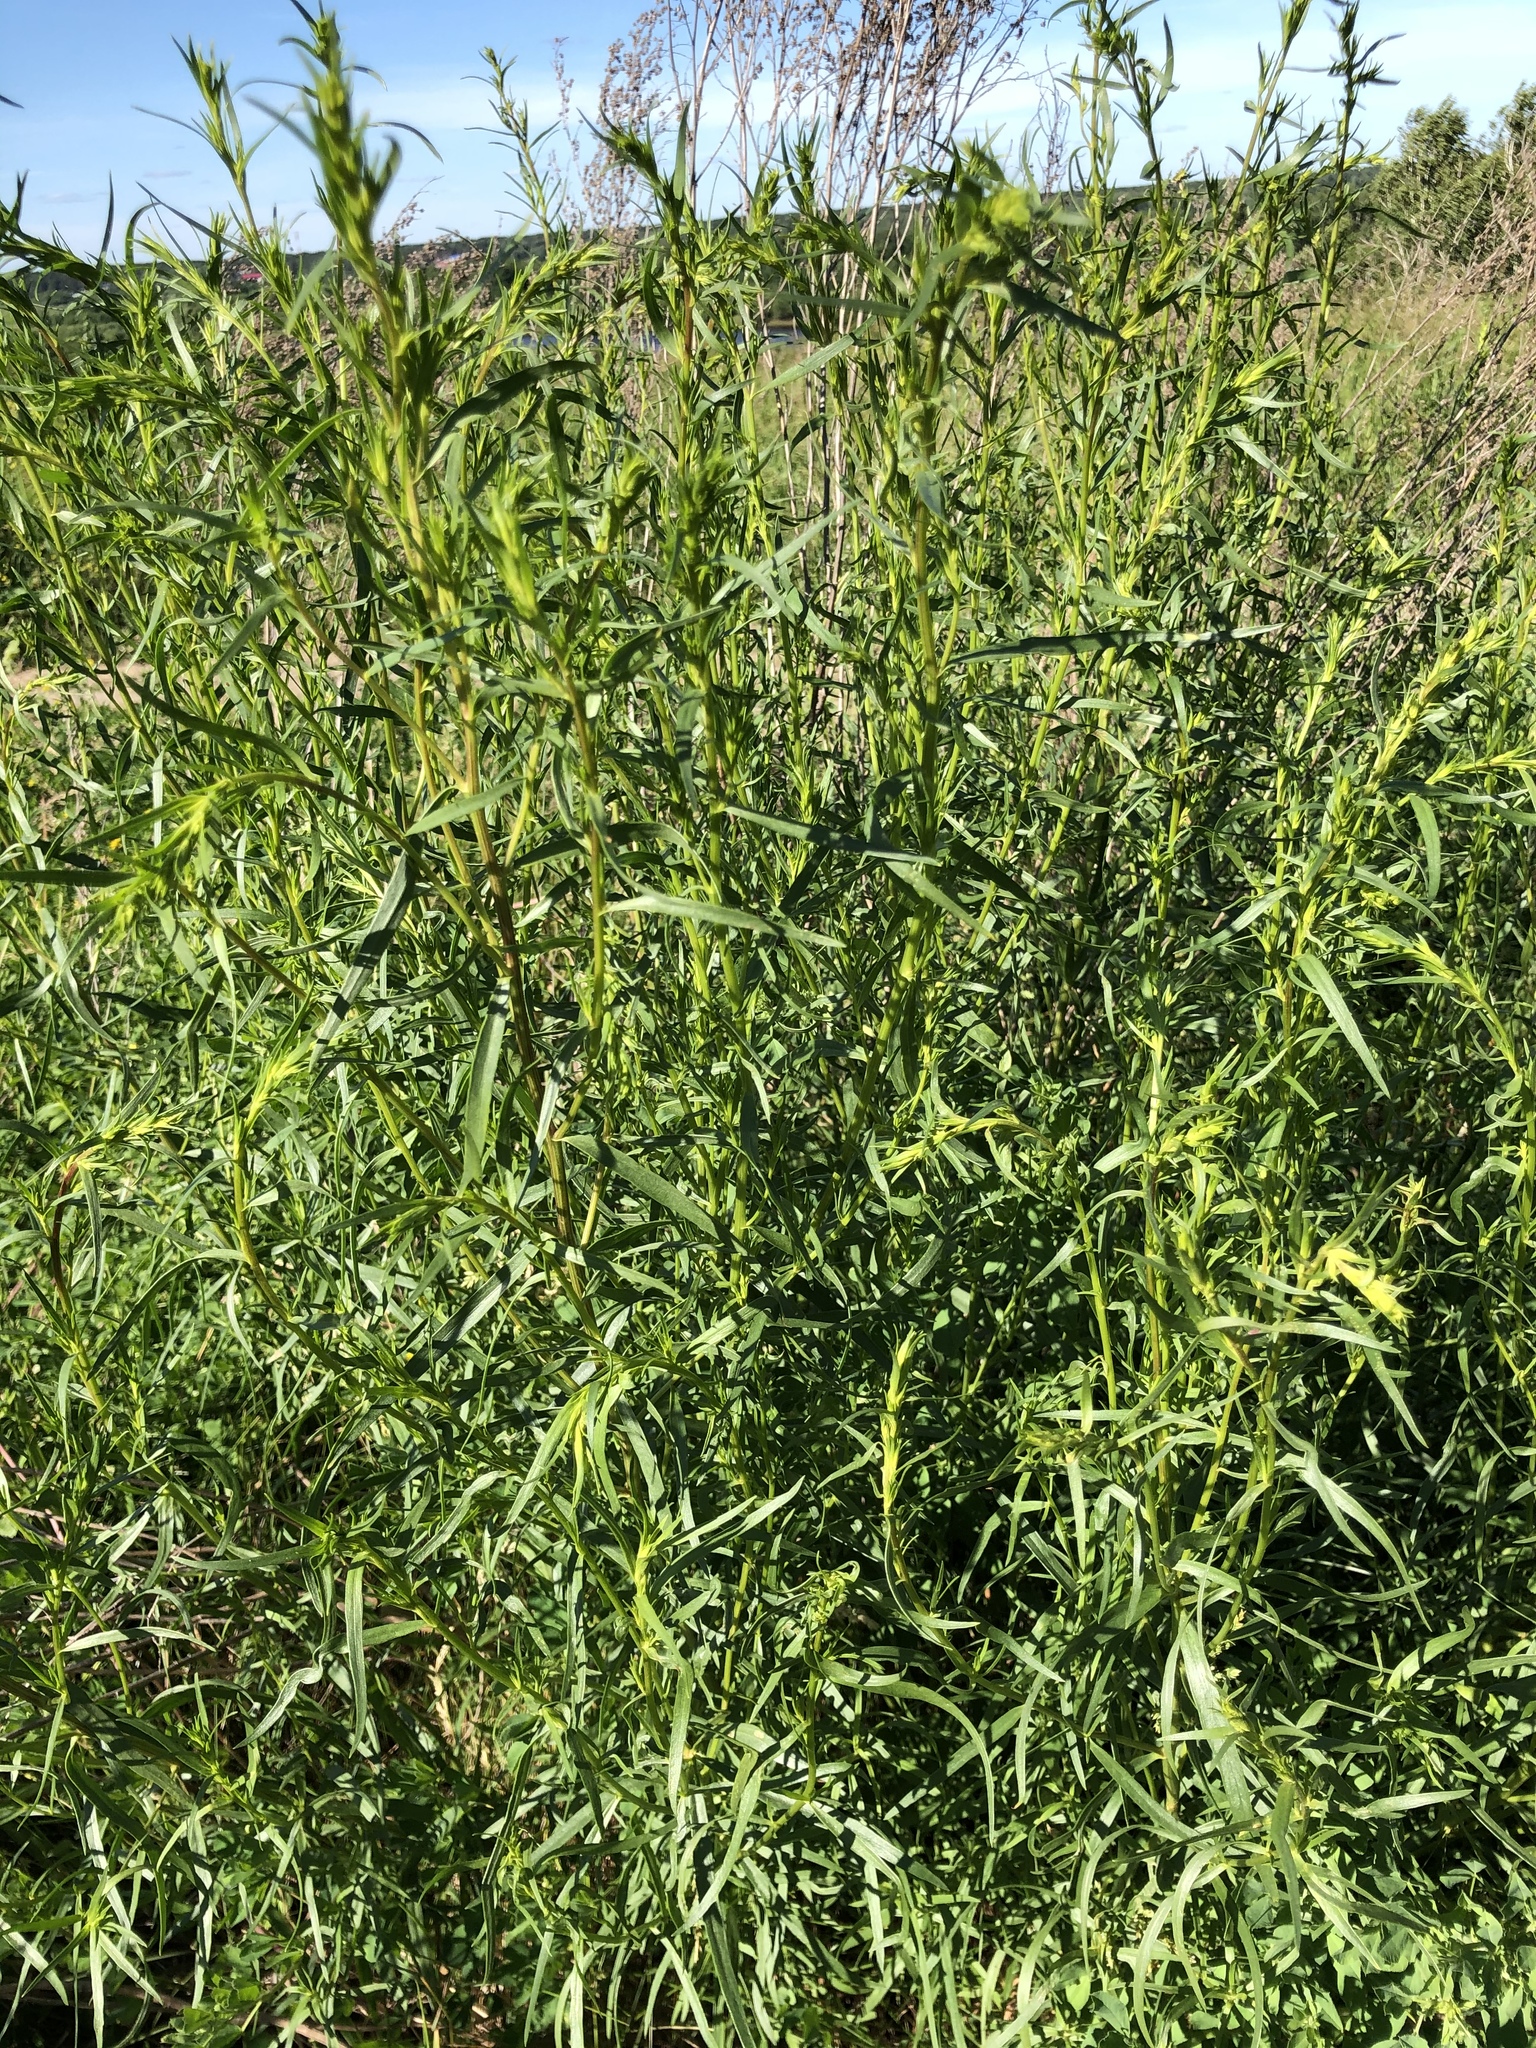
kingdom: Plantae
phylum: Tracheophyta
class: Magnoliopsida
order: Asterales
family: Asteraceae
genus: Artemisia
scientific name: Artemisia dracunculus
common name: Tarragon
